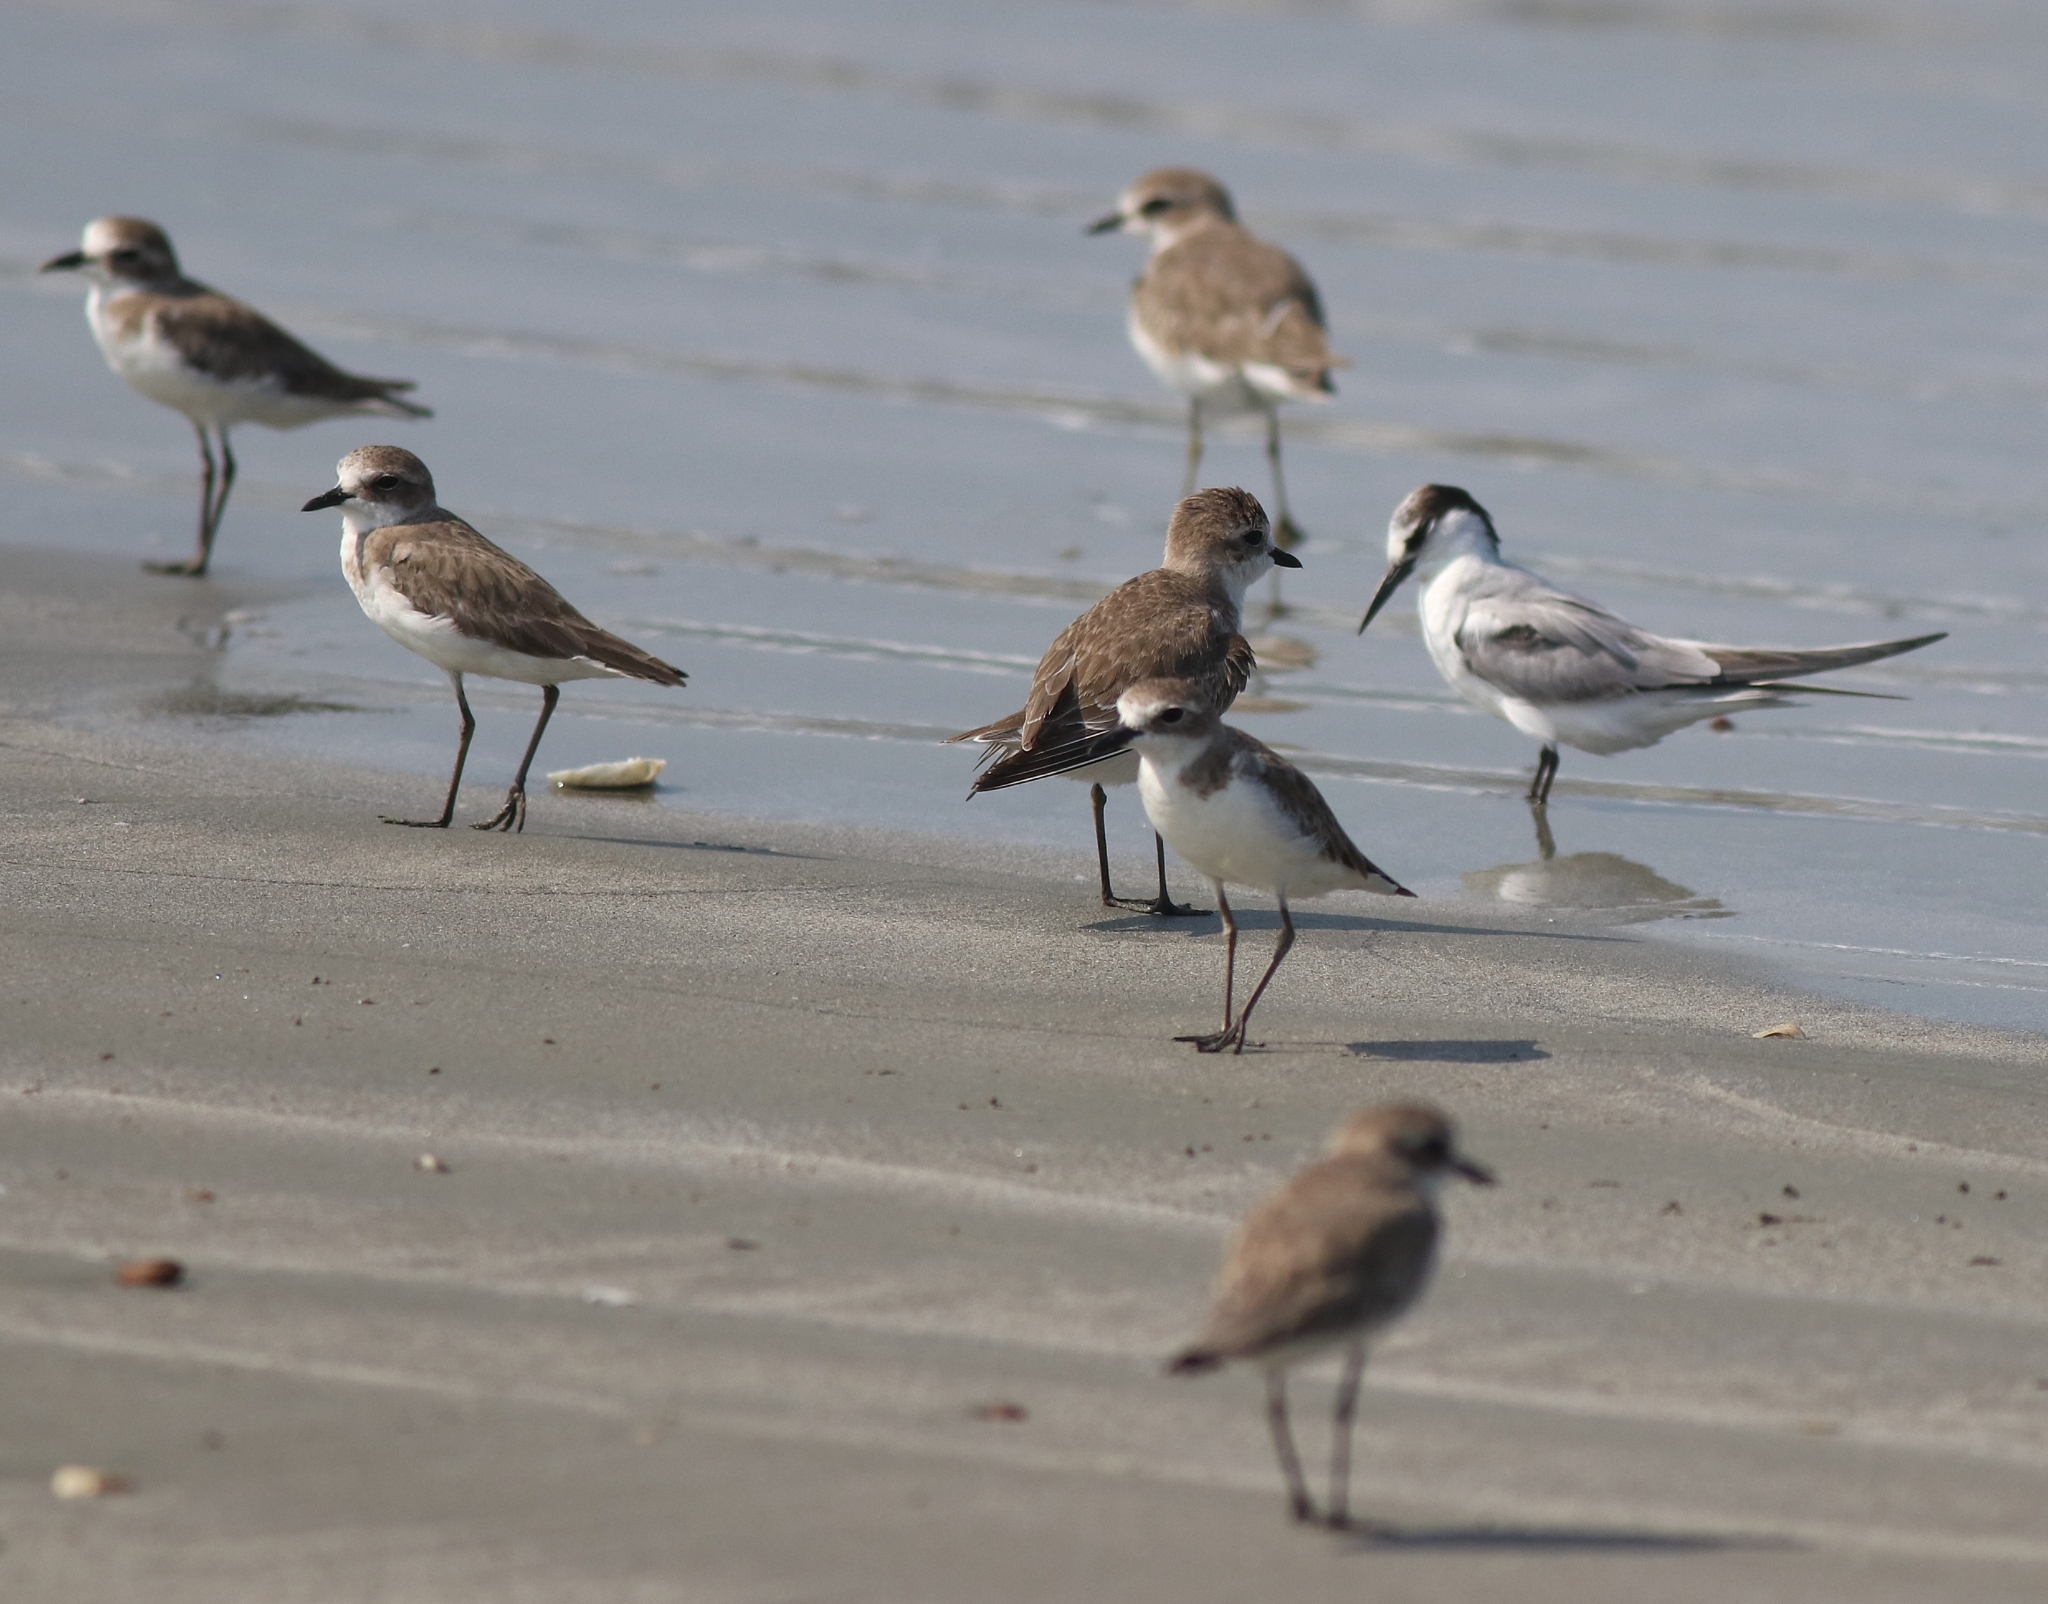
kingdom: Animalia
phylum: Chordata
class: Aves
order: Charadriiformes
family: Charadriidae
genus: Anarhynchus
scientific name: Anarhynchus
